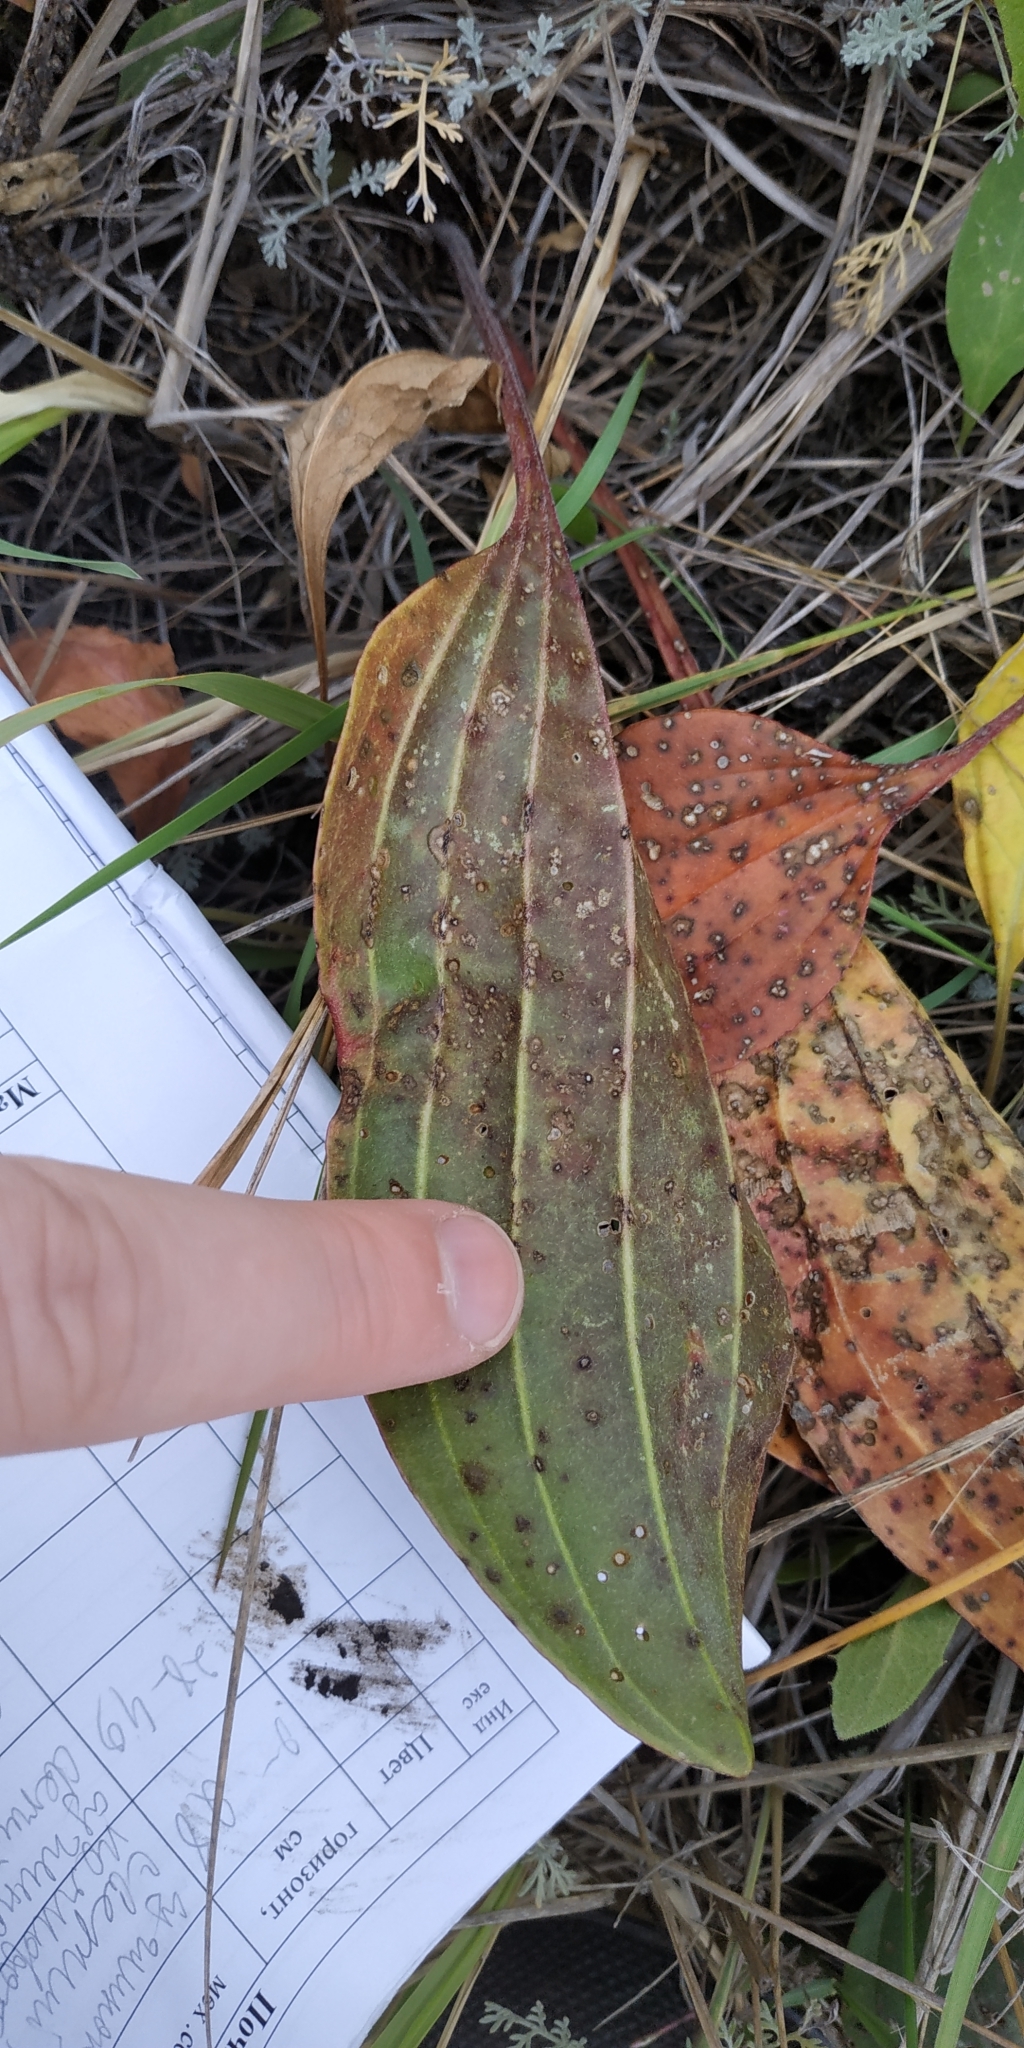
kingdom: Plantae
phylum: Tracheophyta
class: Magnoliopsida
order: Lamiales
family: Plantaginaceae
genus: Plantago
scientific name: Plantago cornuti
